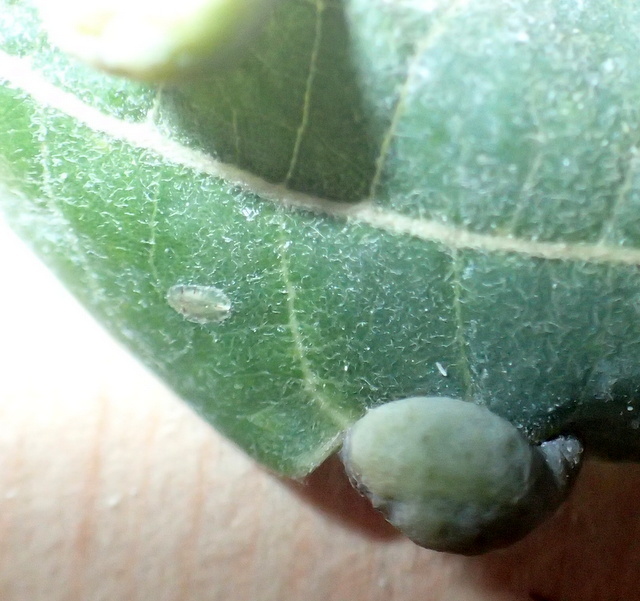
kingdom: Animalia
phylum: Arthropoda
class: Insecta
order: Hemiptera
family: Triozidae
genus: Trioza
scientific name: Trioza magnoliae
